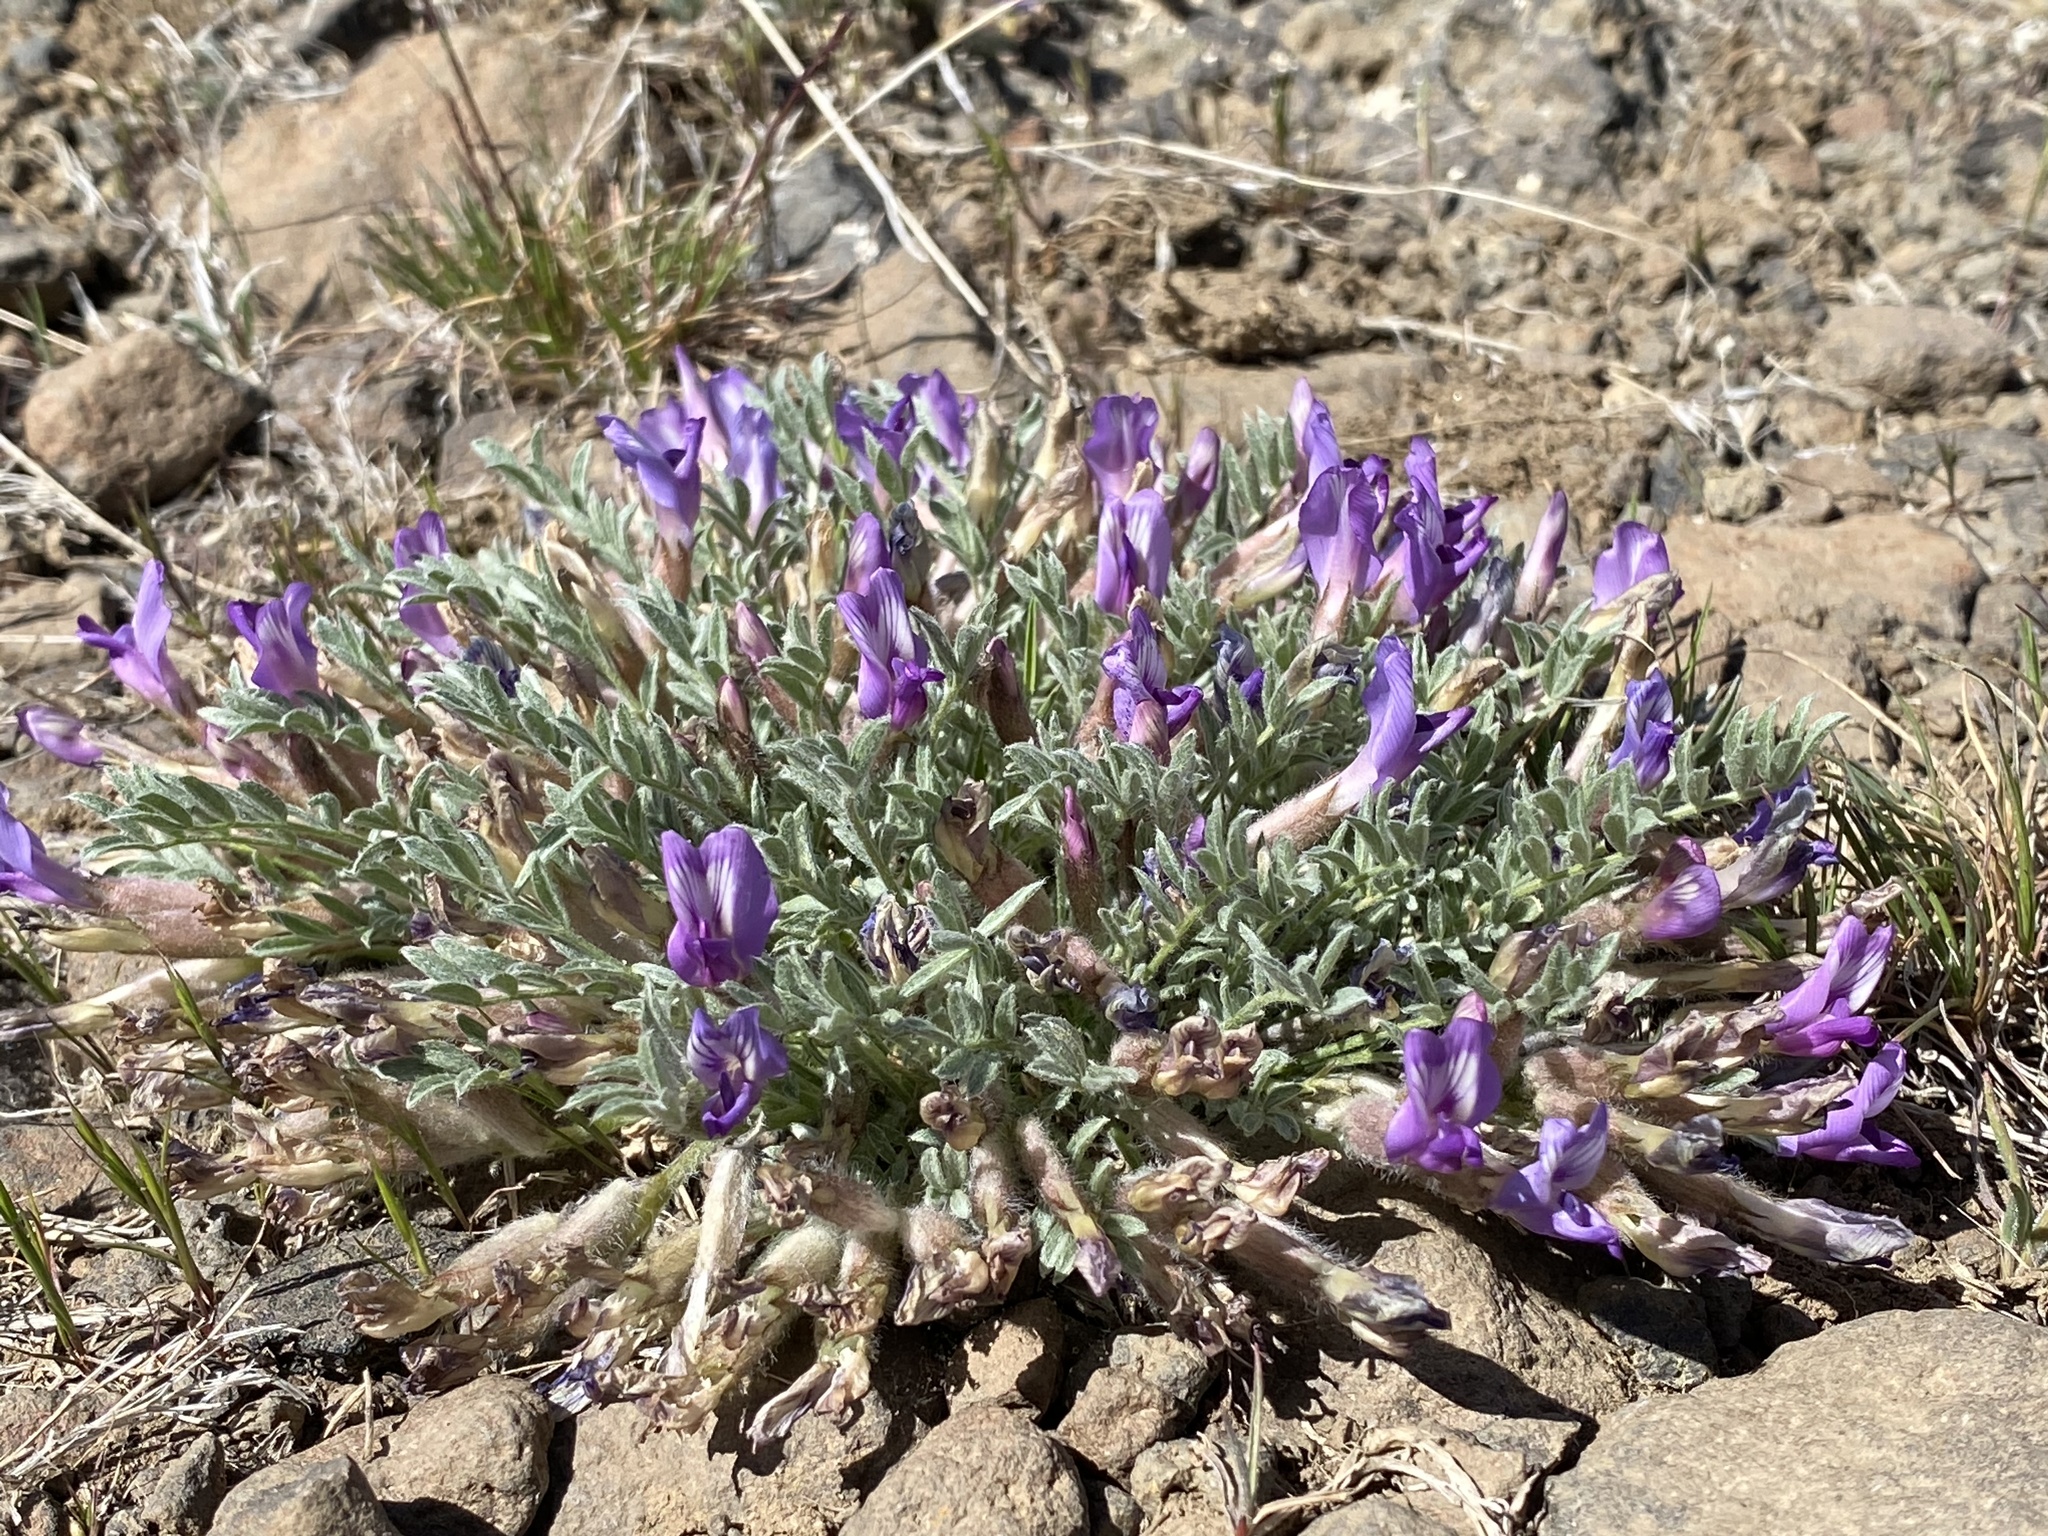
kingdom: Plantae
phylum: Tracheophyta
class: Magnoliopsida
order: Fabales
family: Fabaceae
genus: Astragalus
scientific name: Astragalus purshii
